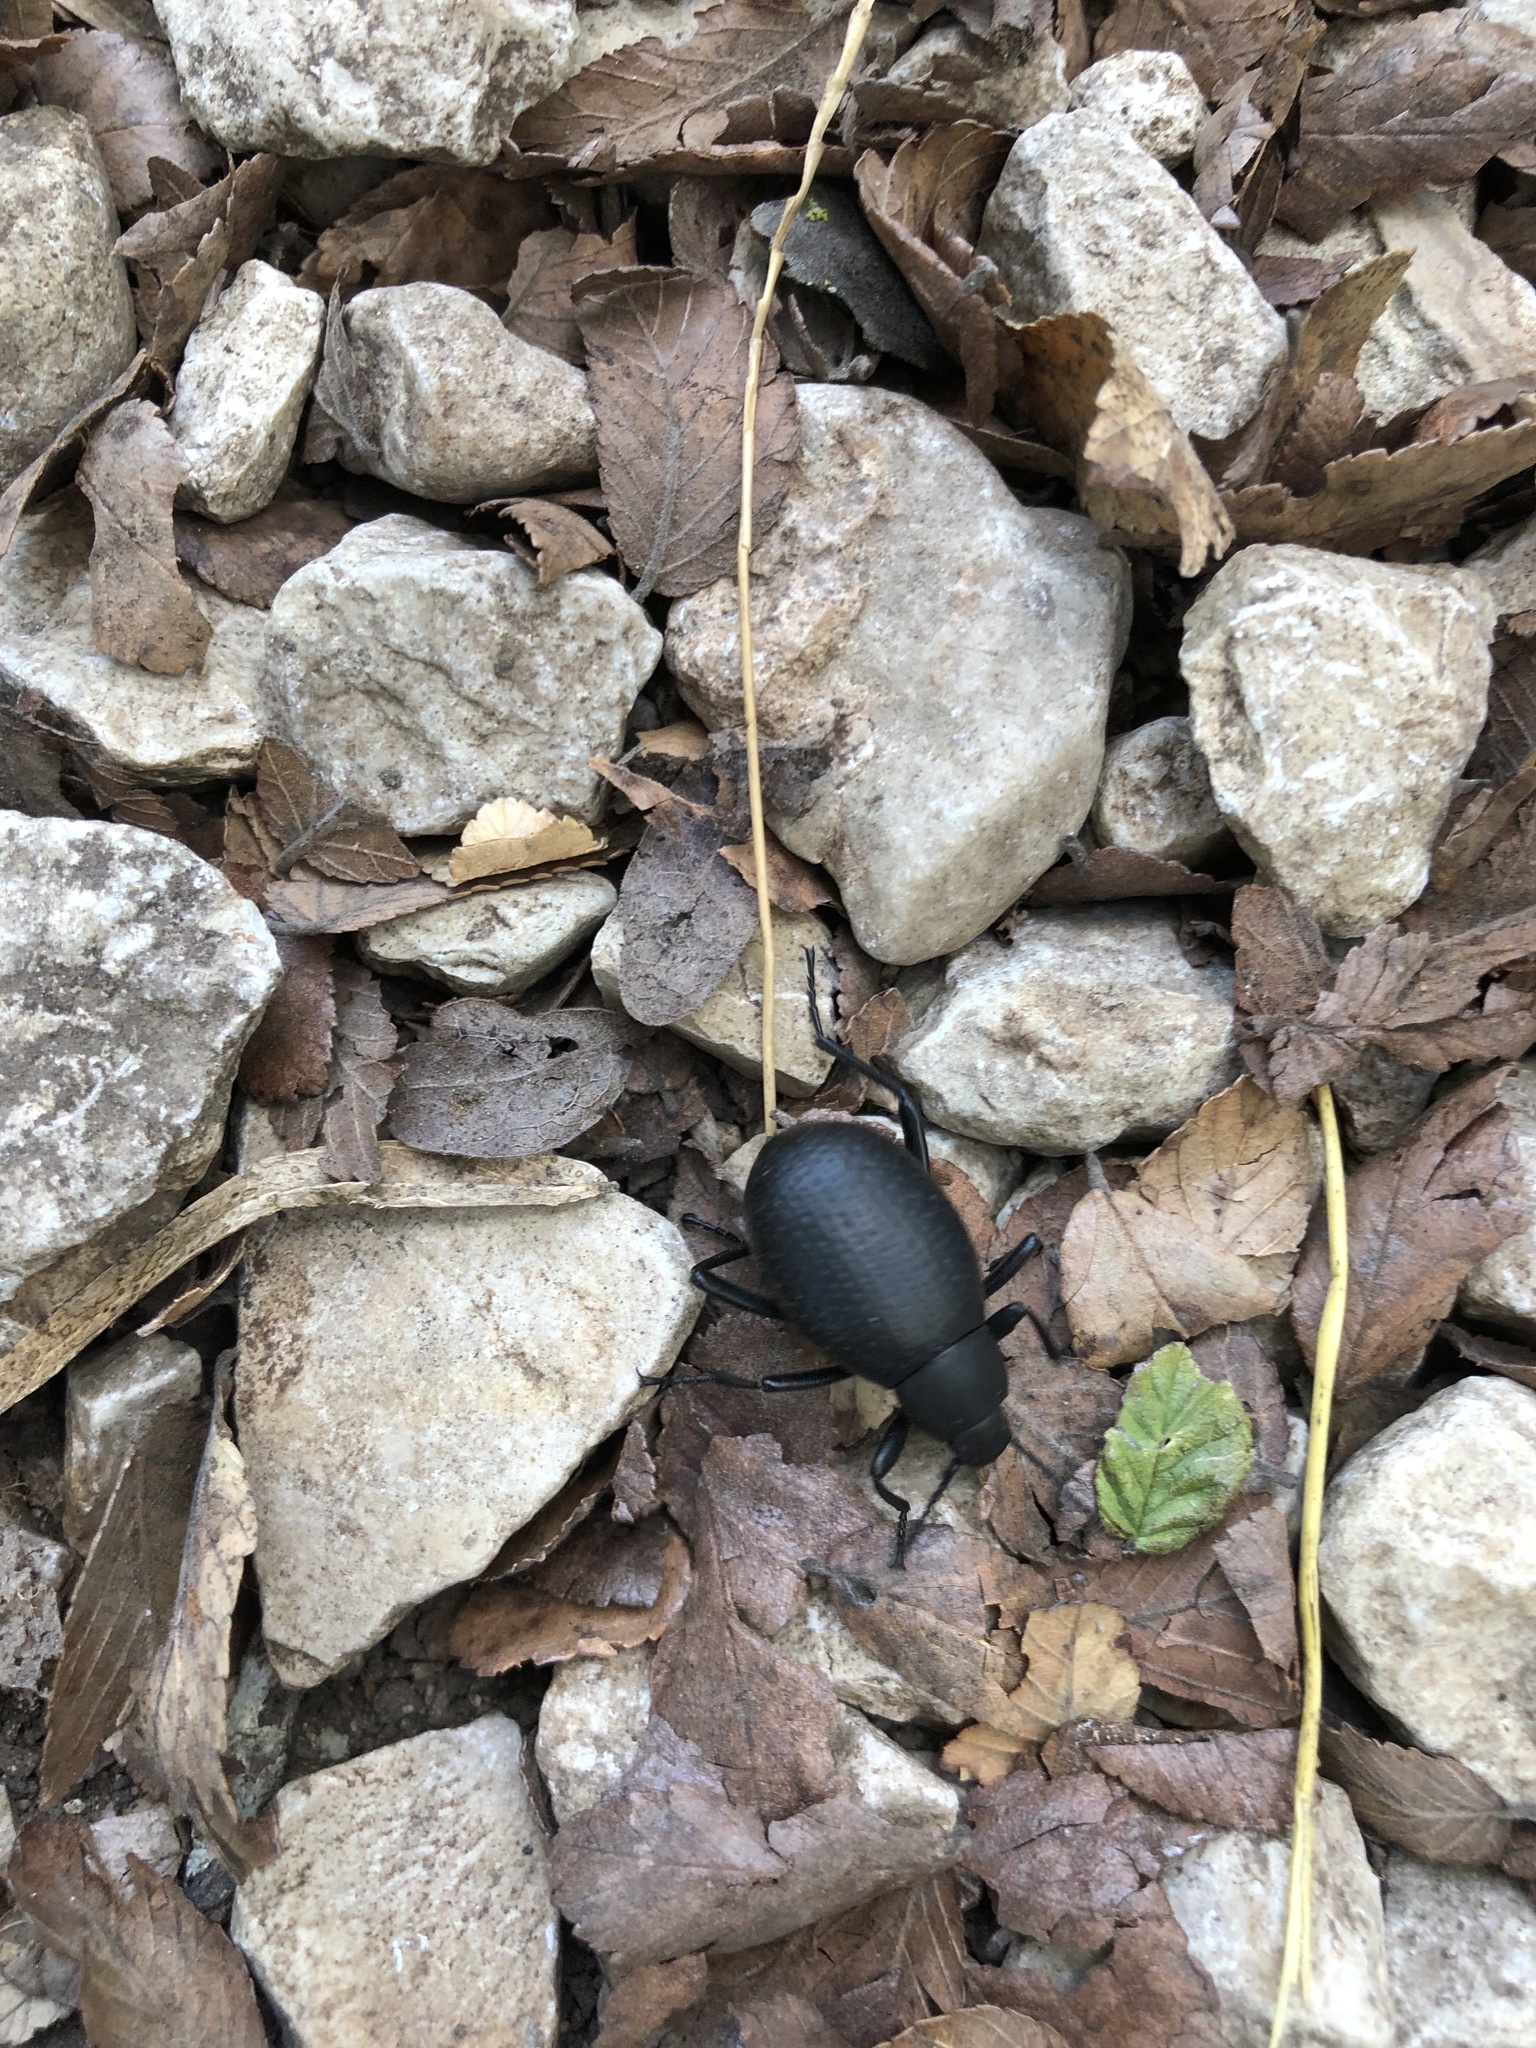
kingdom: Animalia
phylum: Arthropoda
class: Insecta
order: Coleoptera
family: Tenebrionidae
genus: Eleodes
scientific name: Eleodes goryi
